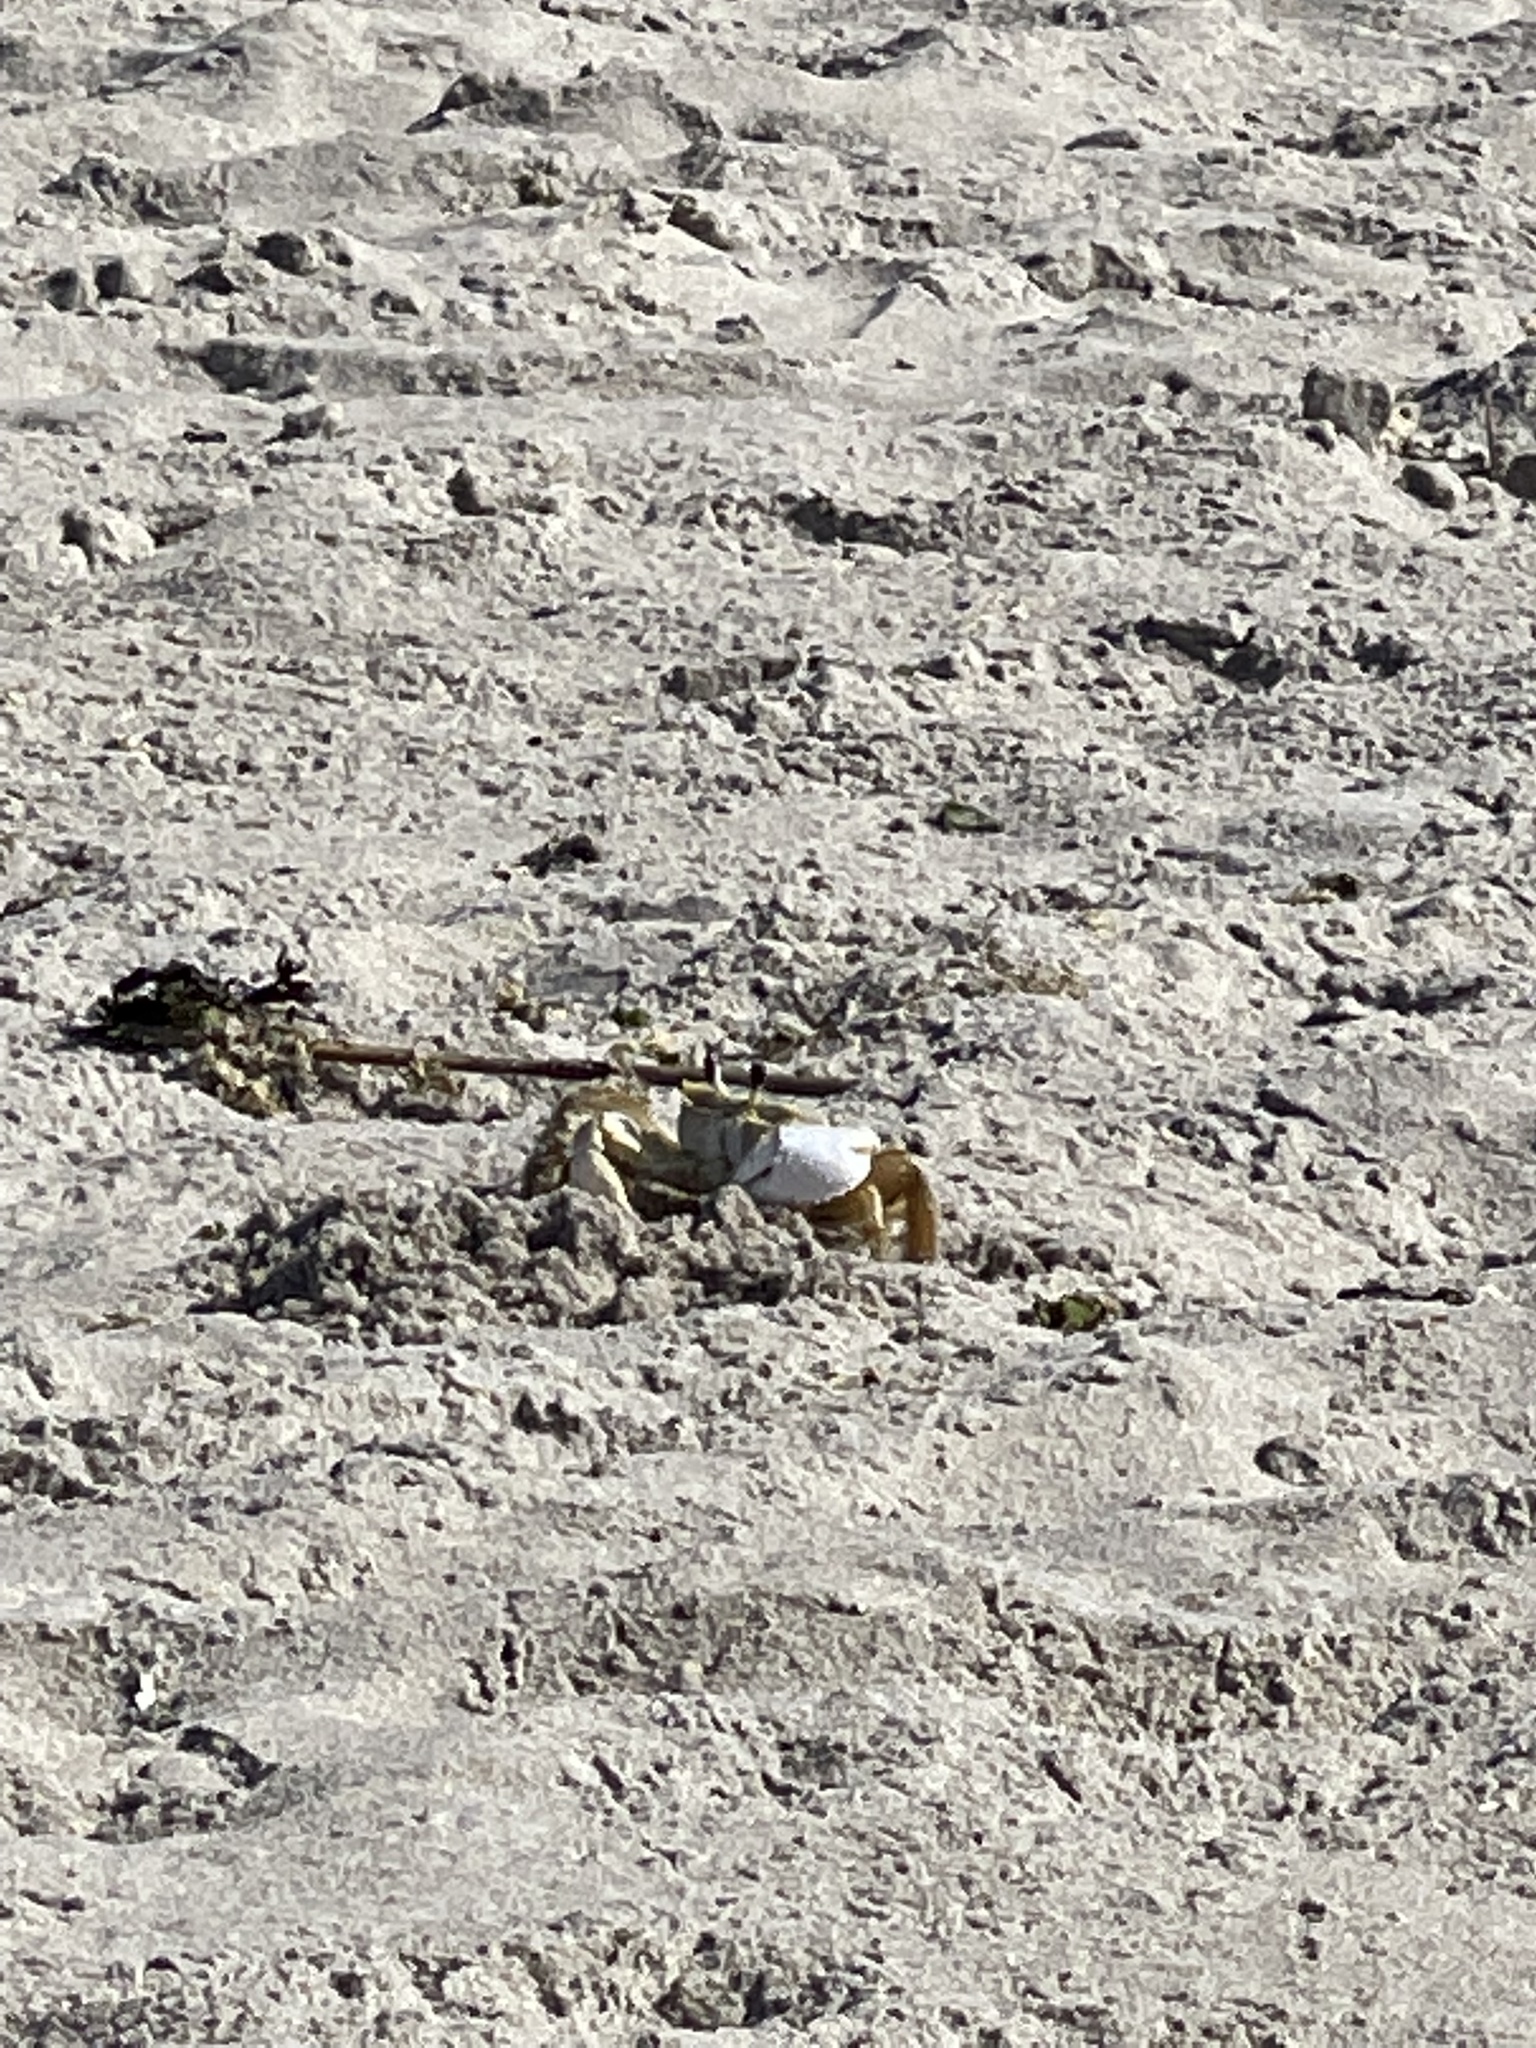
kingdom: Animalia
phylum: Arthropoda
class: Malacostraca
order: Decapoda
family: Ocypodidae
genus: Ocypode
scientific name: Ocypode quadrata
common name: Ghost crab
